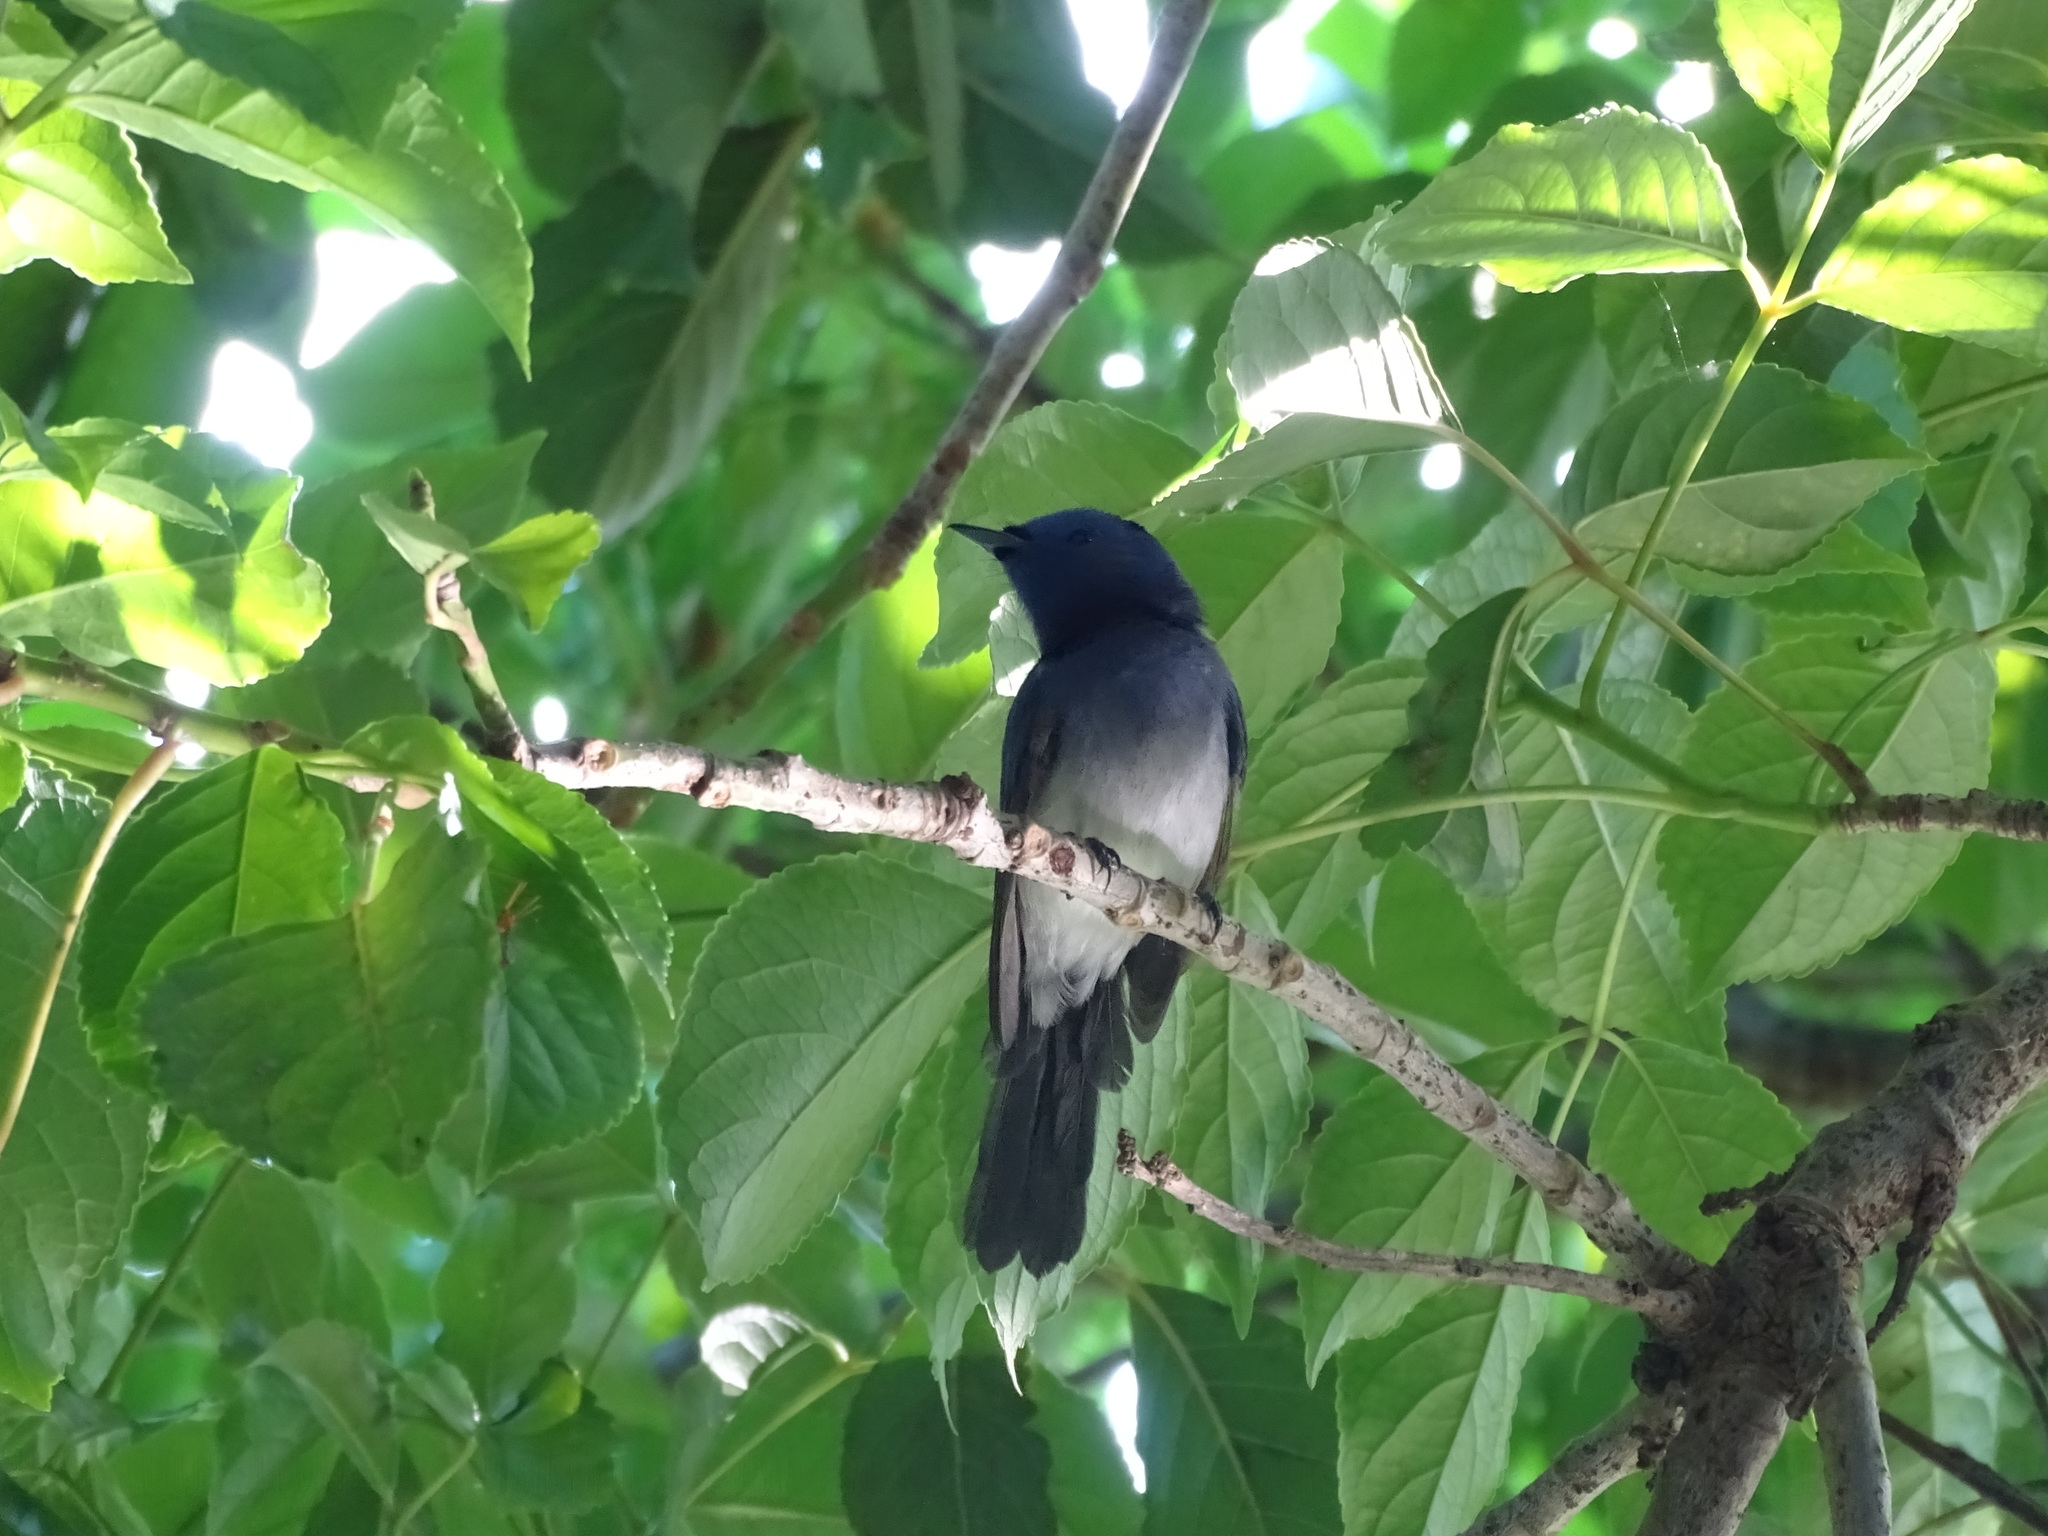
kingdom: Animalia
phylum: Chordata
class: Aves
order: Passeriformes
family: Monarchidae
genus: Hypothymis
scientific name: Hypothymis azurea
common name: Black-naped monarch
